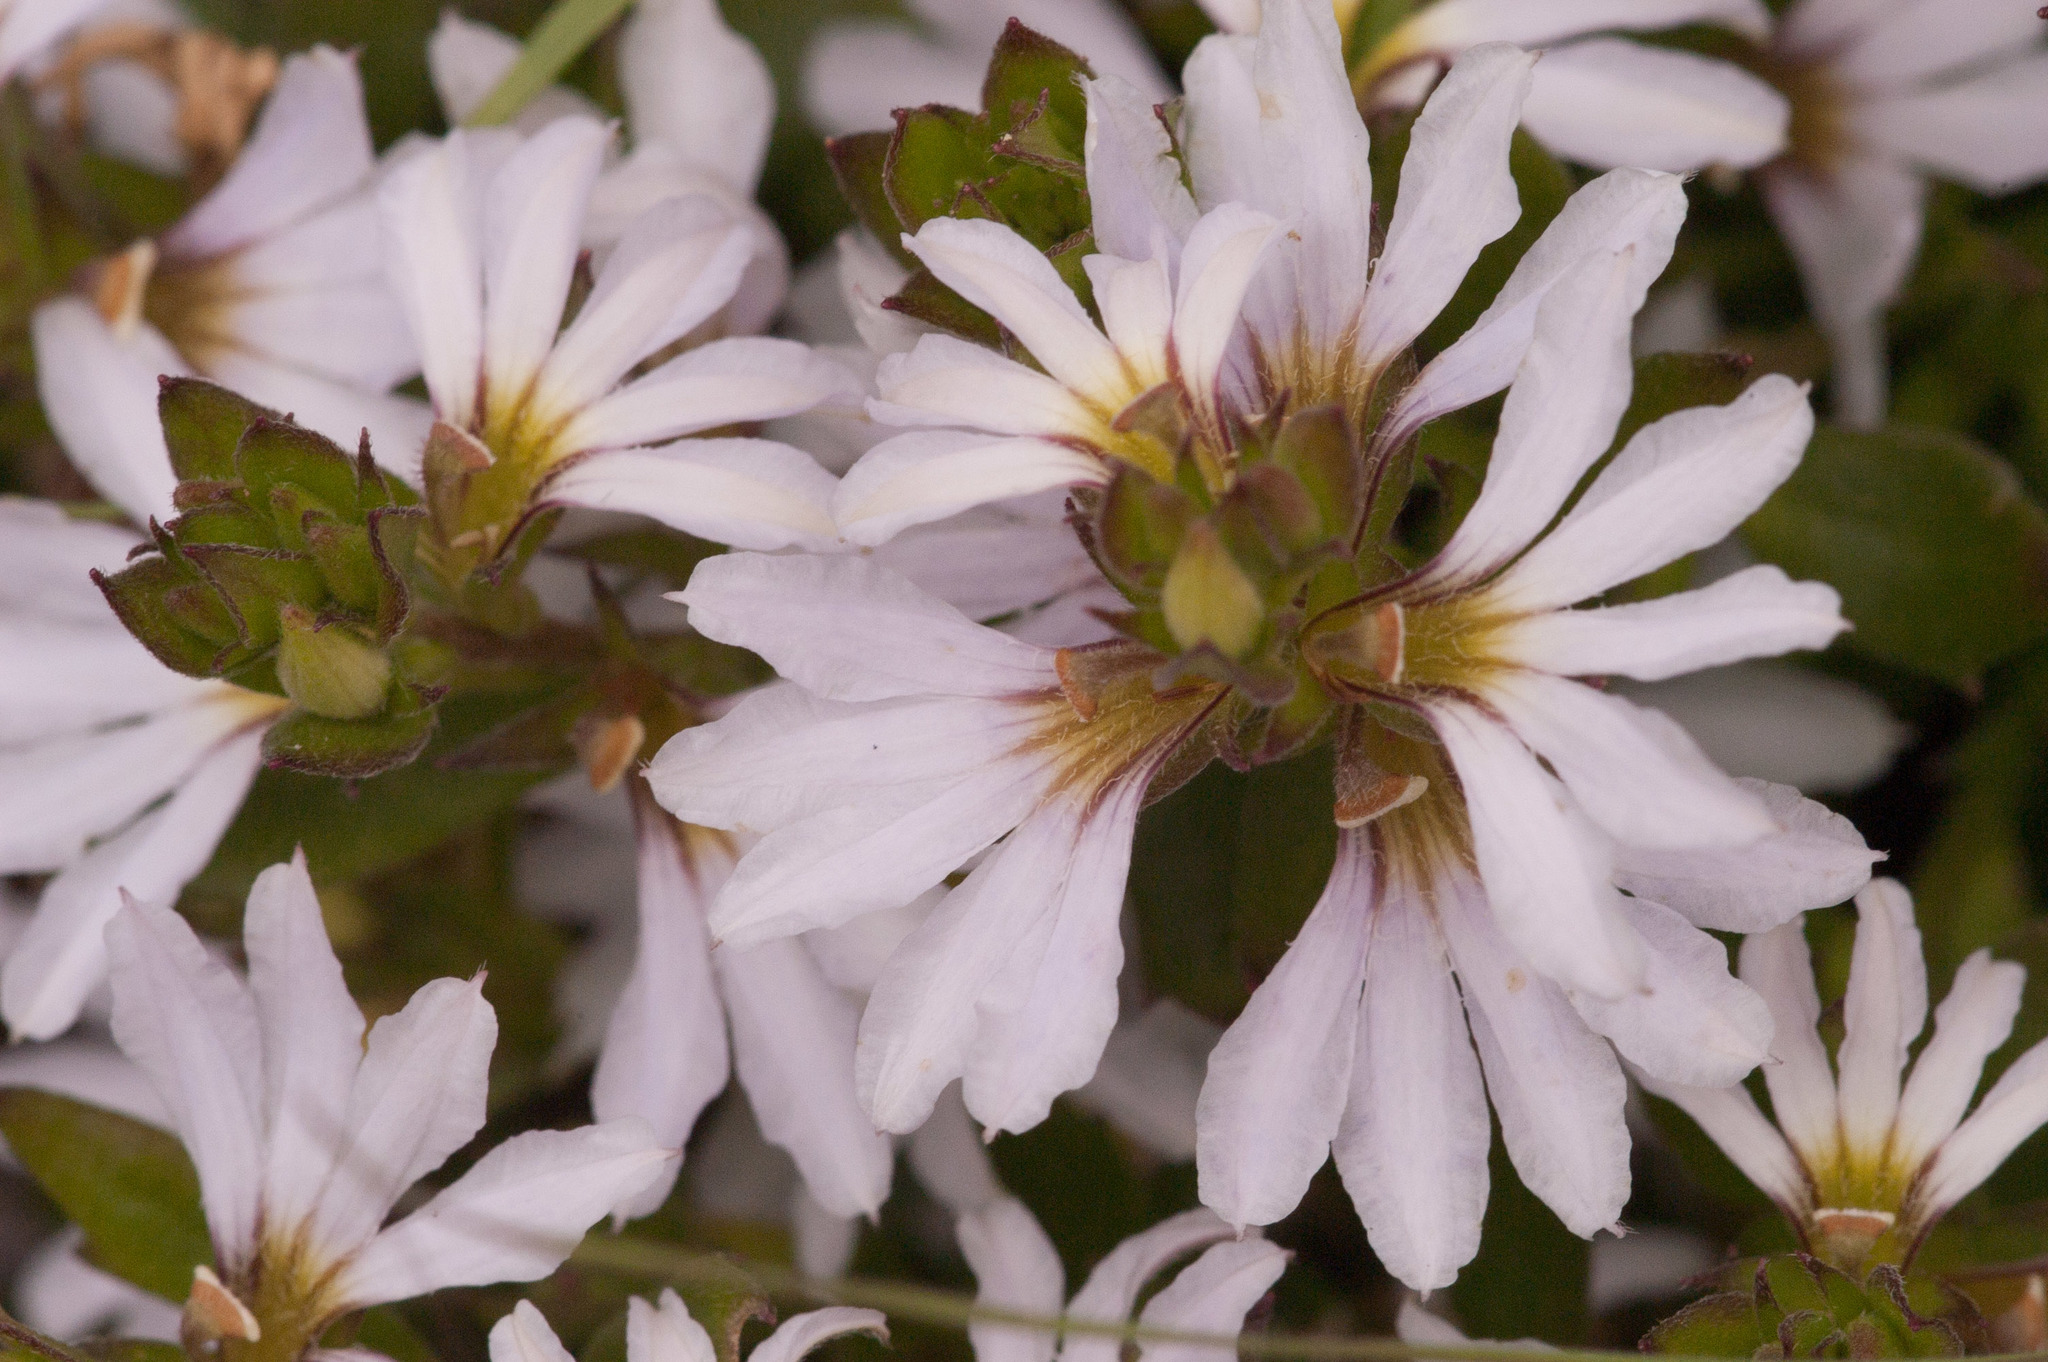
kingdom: Plantae
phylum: Tracheophyta
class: Magnoliopsida
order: Asterales
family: Goodeniaceae
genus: Scaevola
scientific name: Scaevola albida
